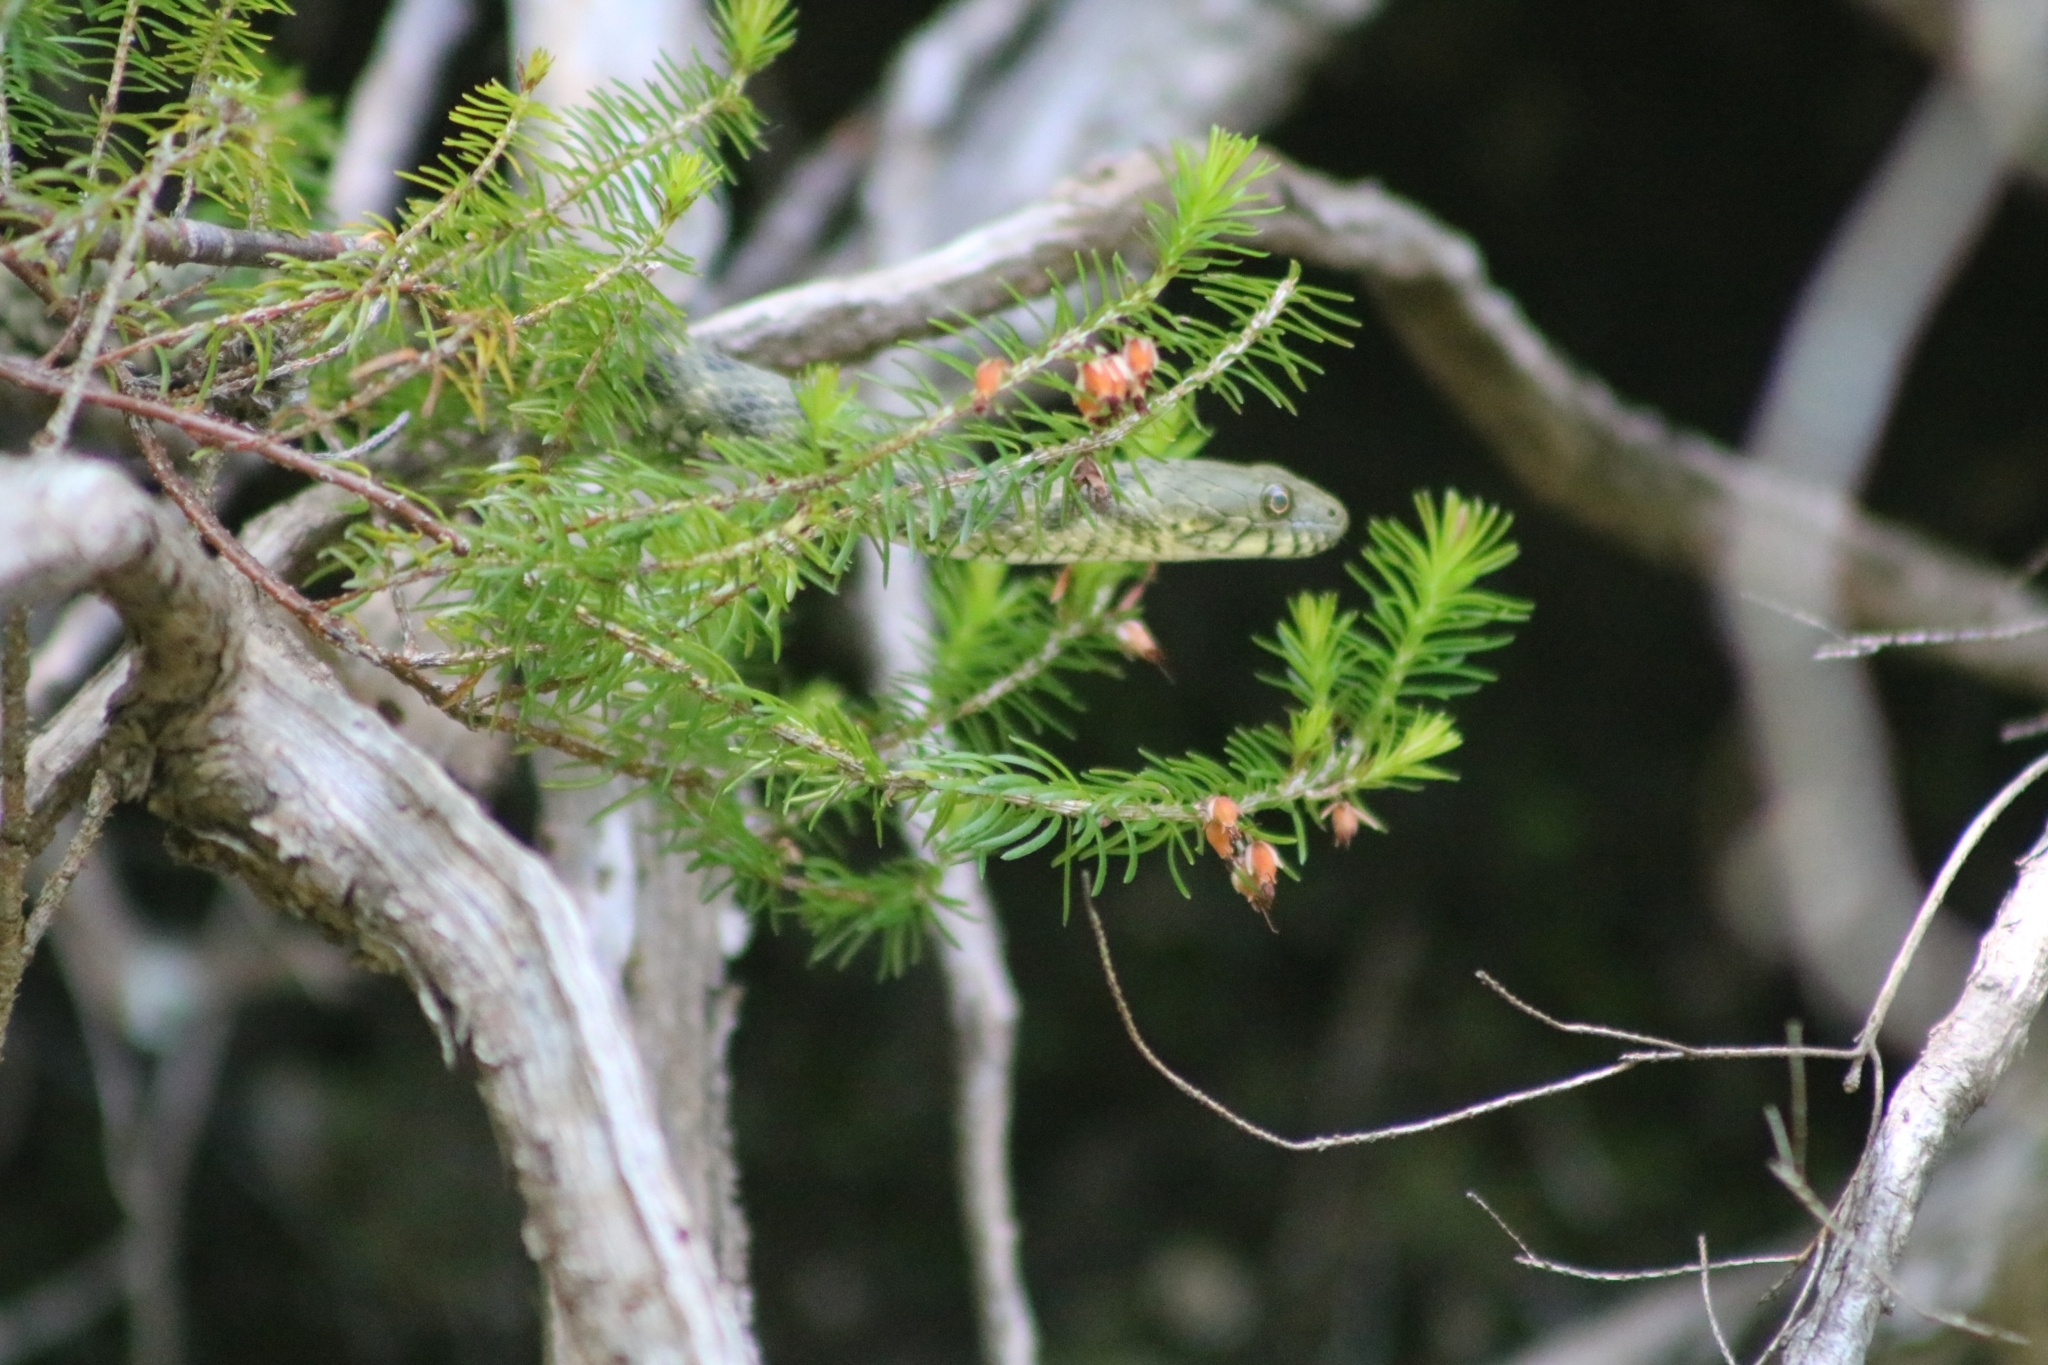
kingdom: Animalia
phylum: Chordata
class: Squamata
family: Colubridae
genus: Natrix
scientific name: Natrix tessellata
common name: Dice snake
